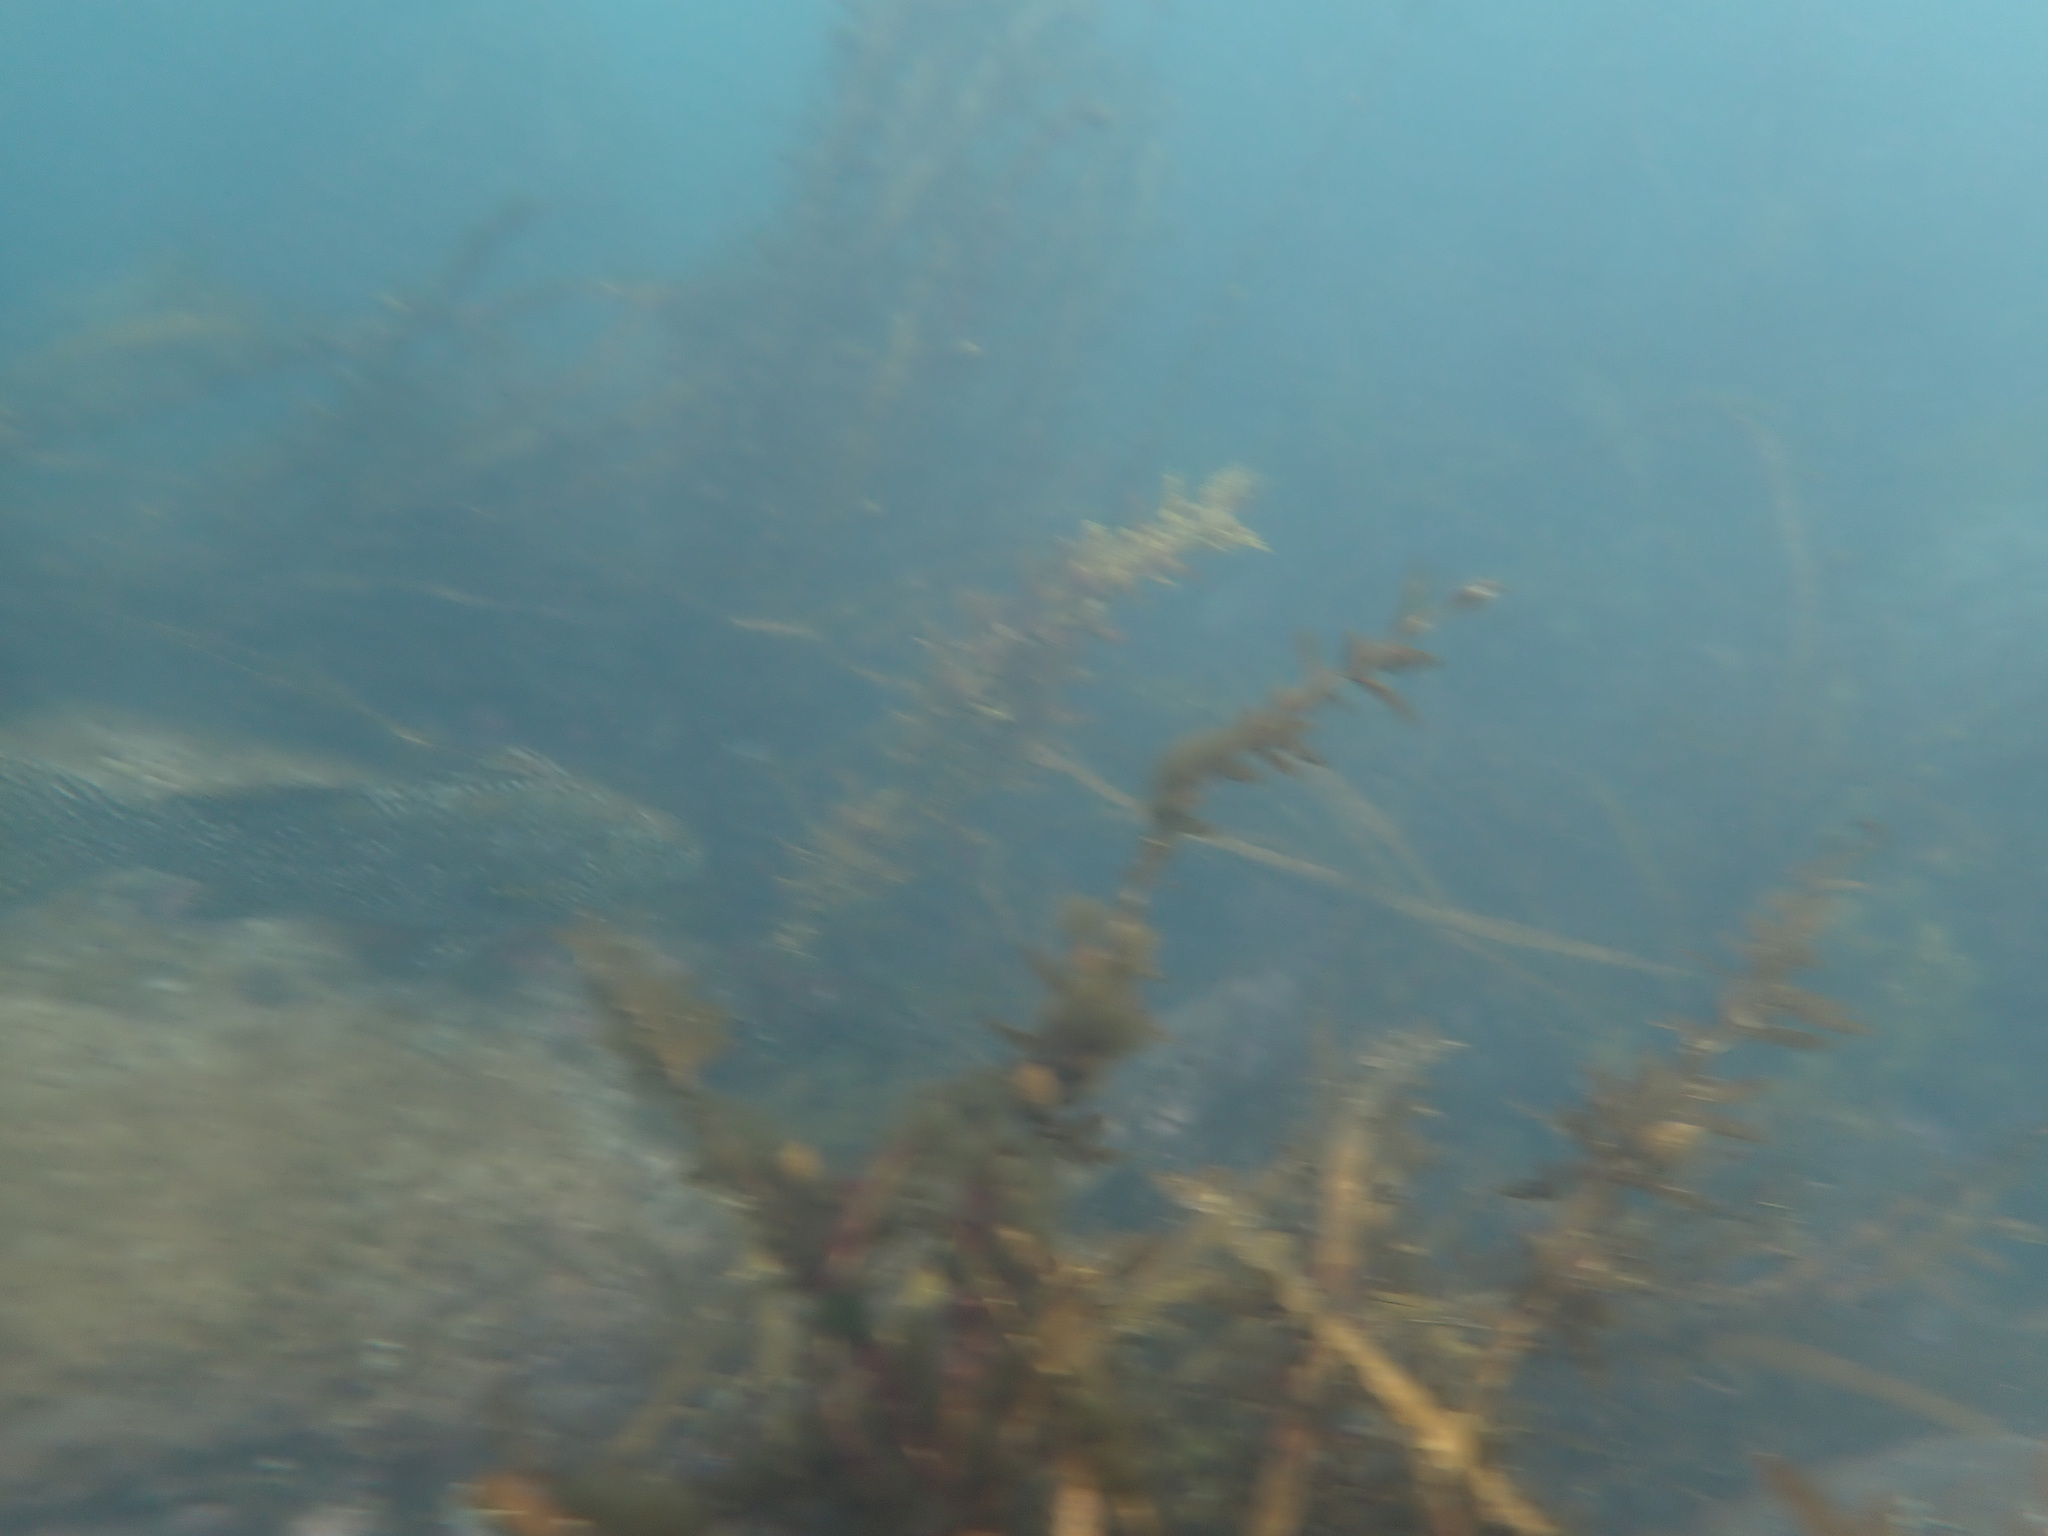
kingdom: Animalia
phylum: Chordata
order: Perciformes
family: Aplodactylidae
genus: Aplodactylus
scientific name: Aplodactylus arctidens
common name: Marblefish
